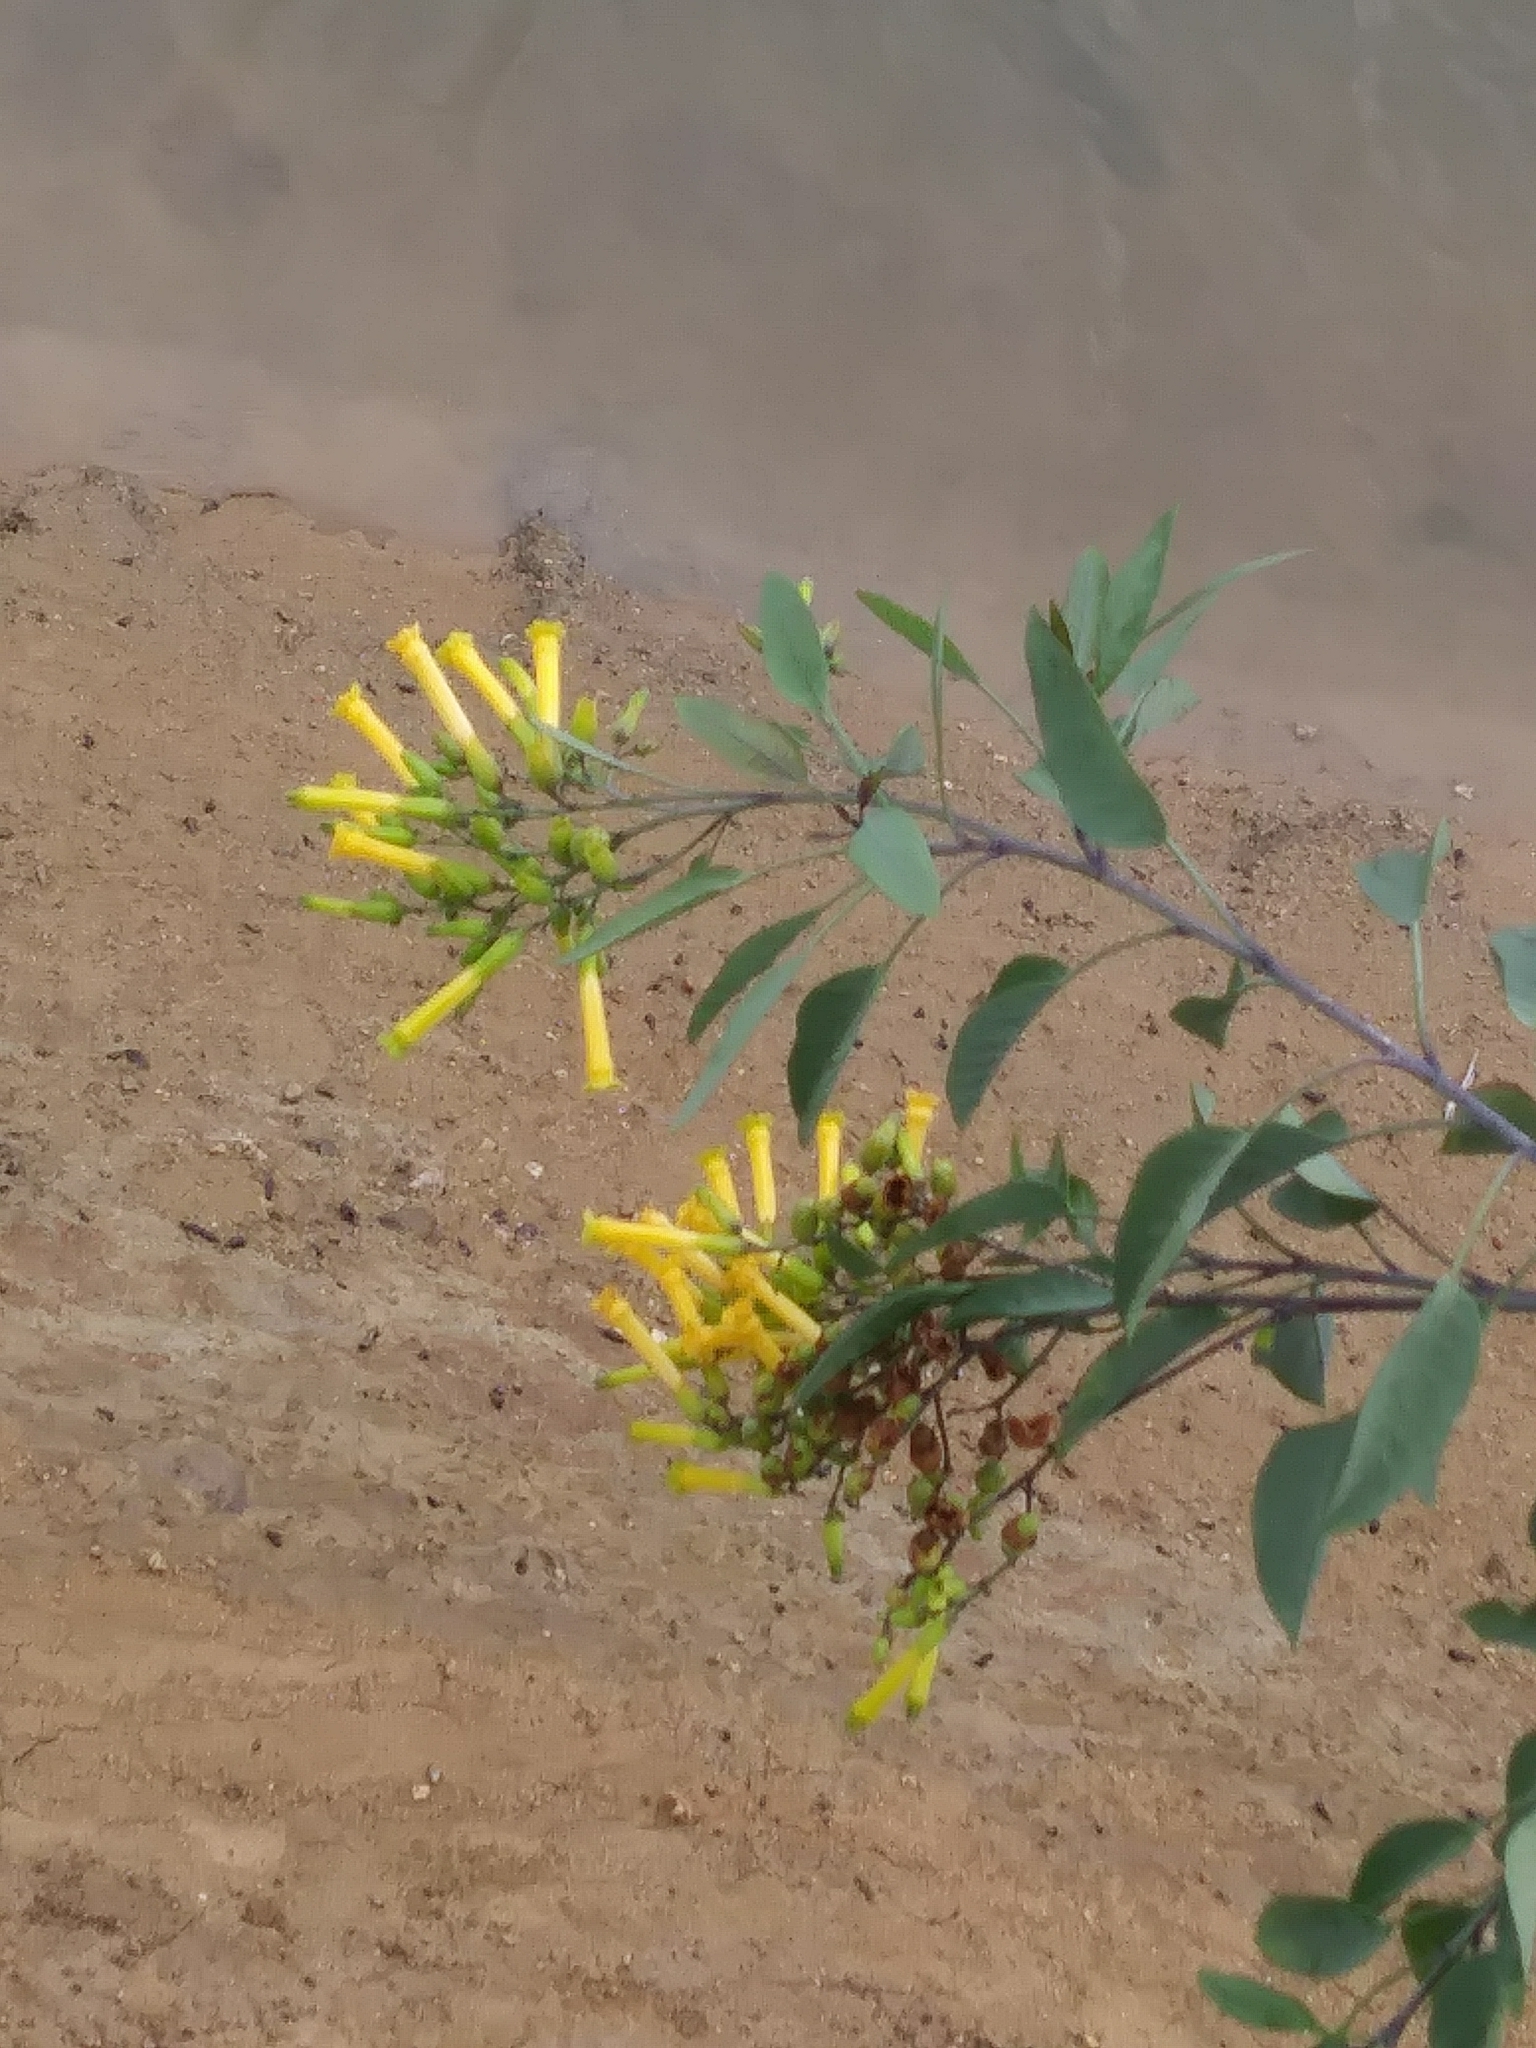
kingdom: Plantae
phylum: Tracheophyta
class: Magnoliopsida
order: Solanales
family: Solanaceae
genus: Nicotiana
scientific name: Nicotiana glauca
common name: Tree tobacco
